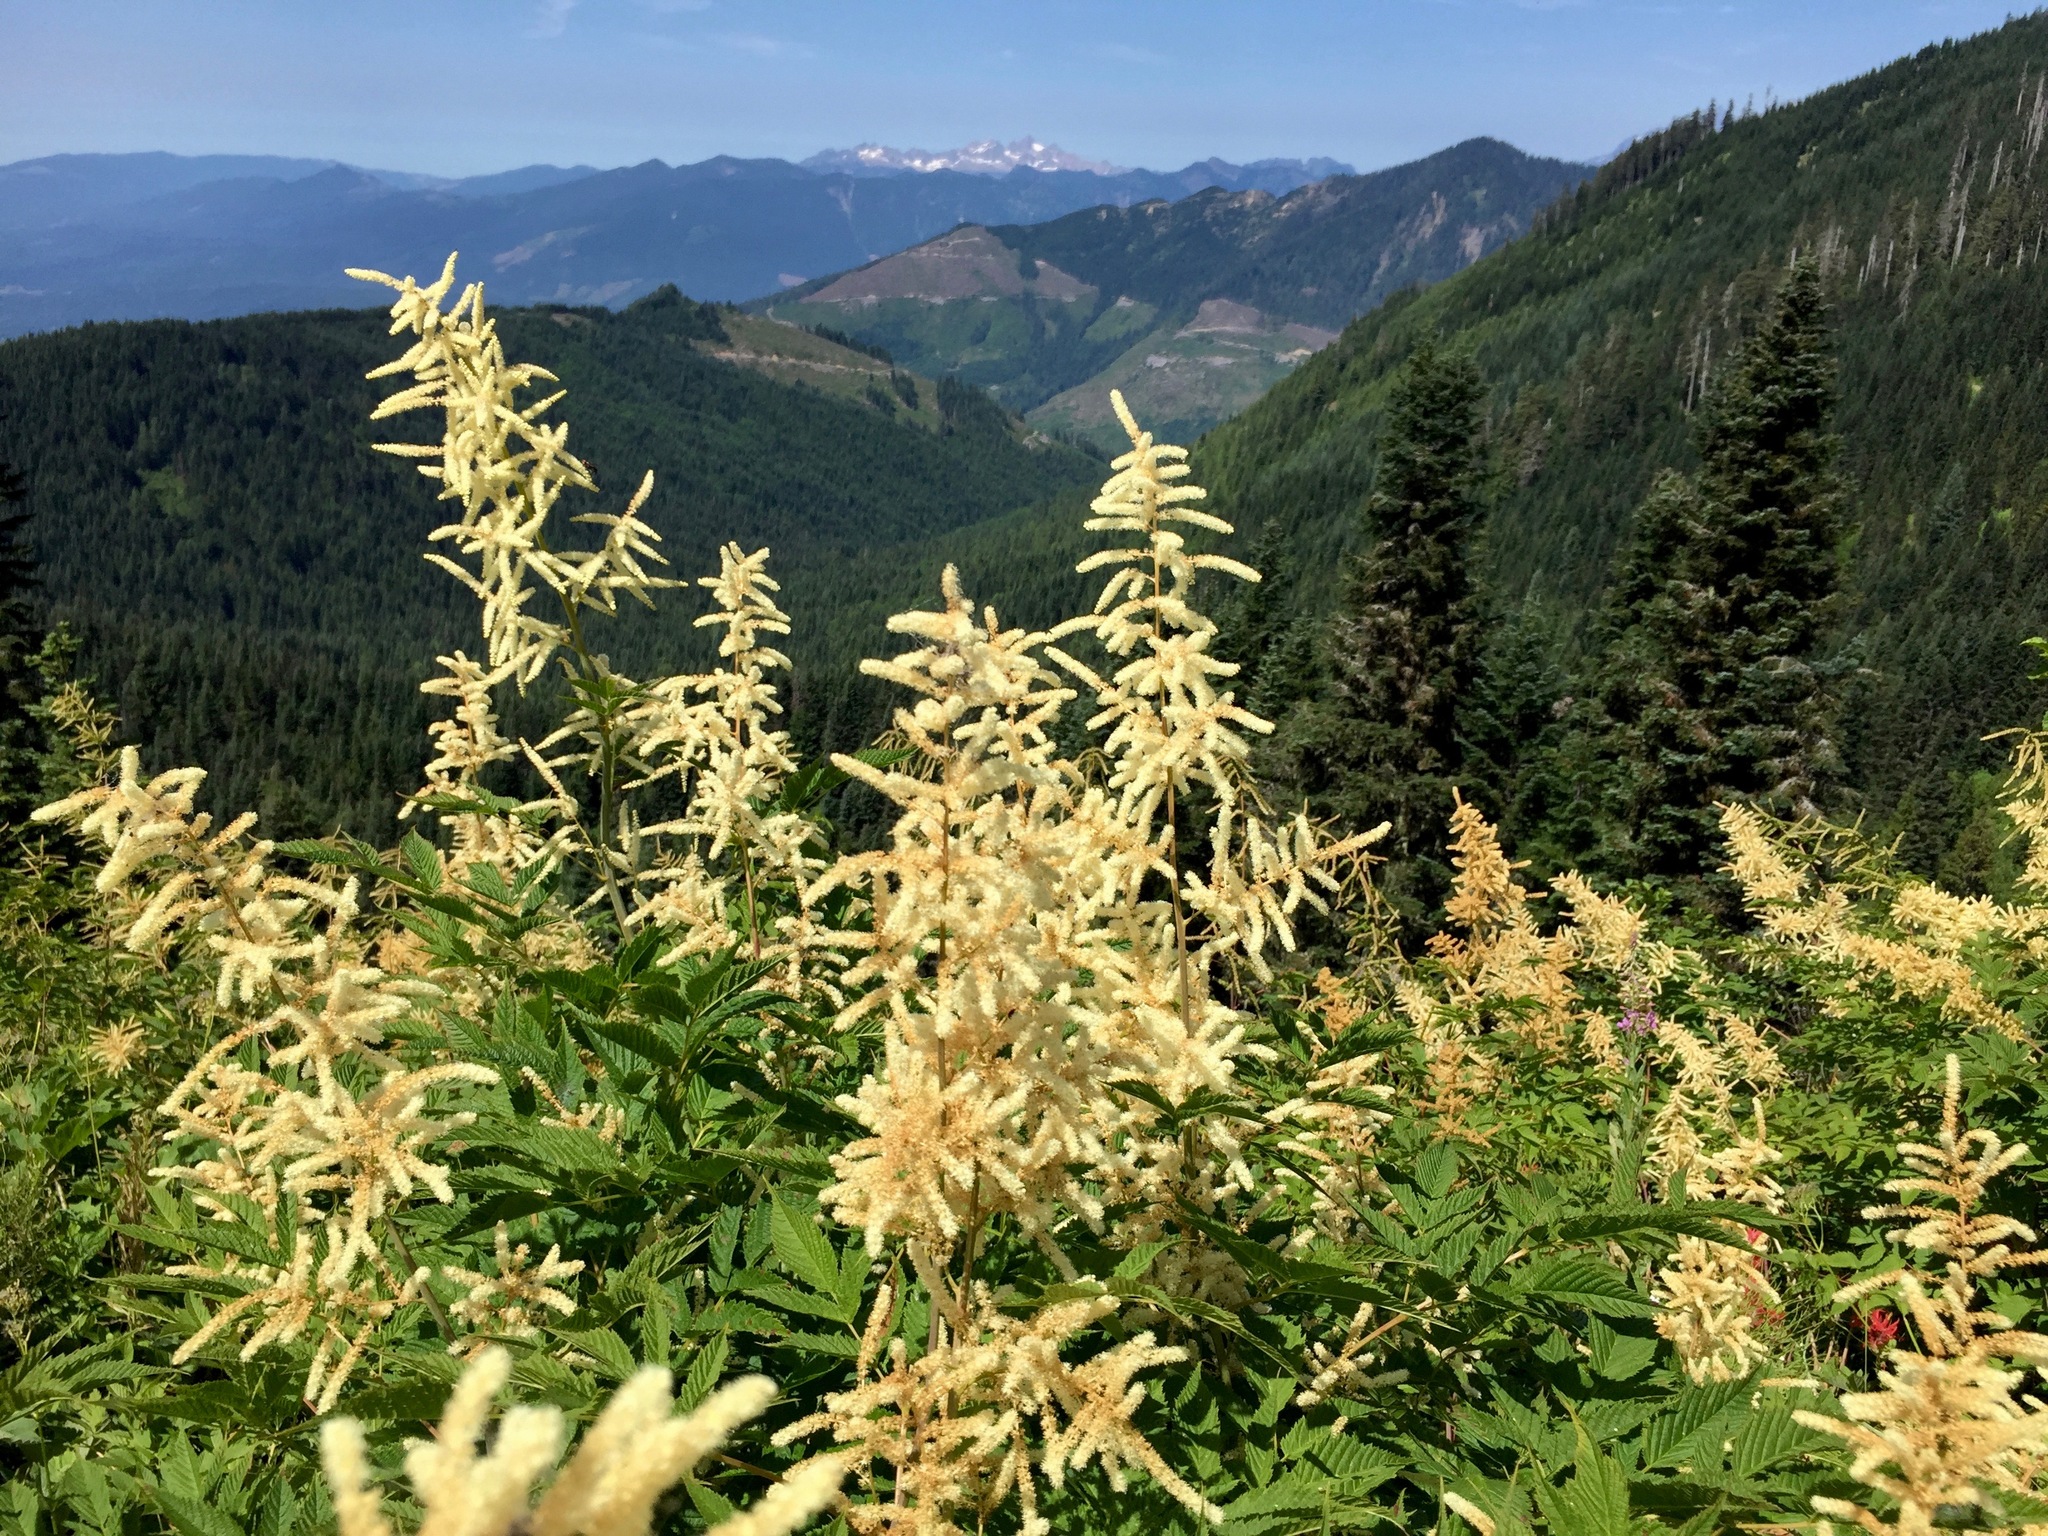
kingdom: Plantae
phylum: Tracheophyta
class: Magnoliopsida
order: Rosales
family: Rosaceae
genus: Aruncus
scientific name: Aruncus dioicus
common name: Buck's-beard
